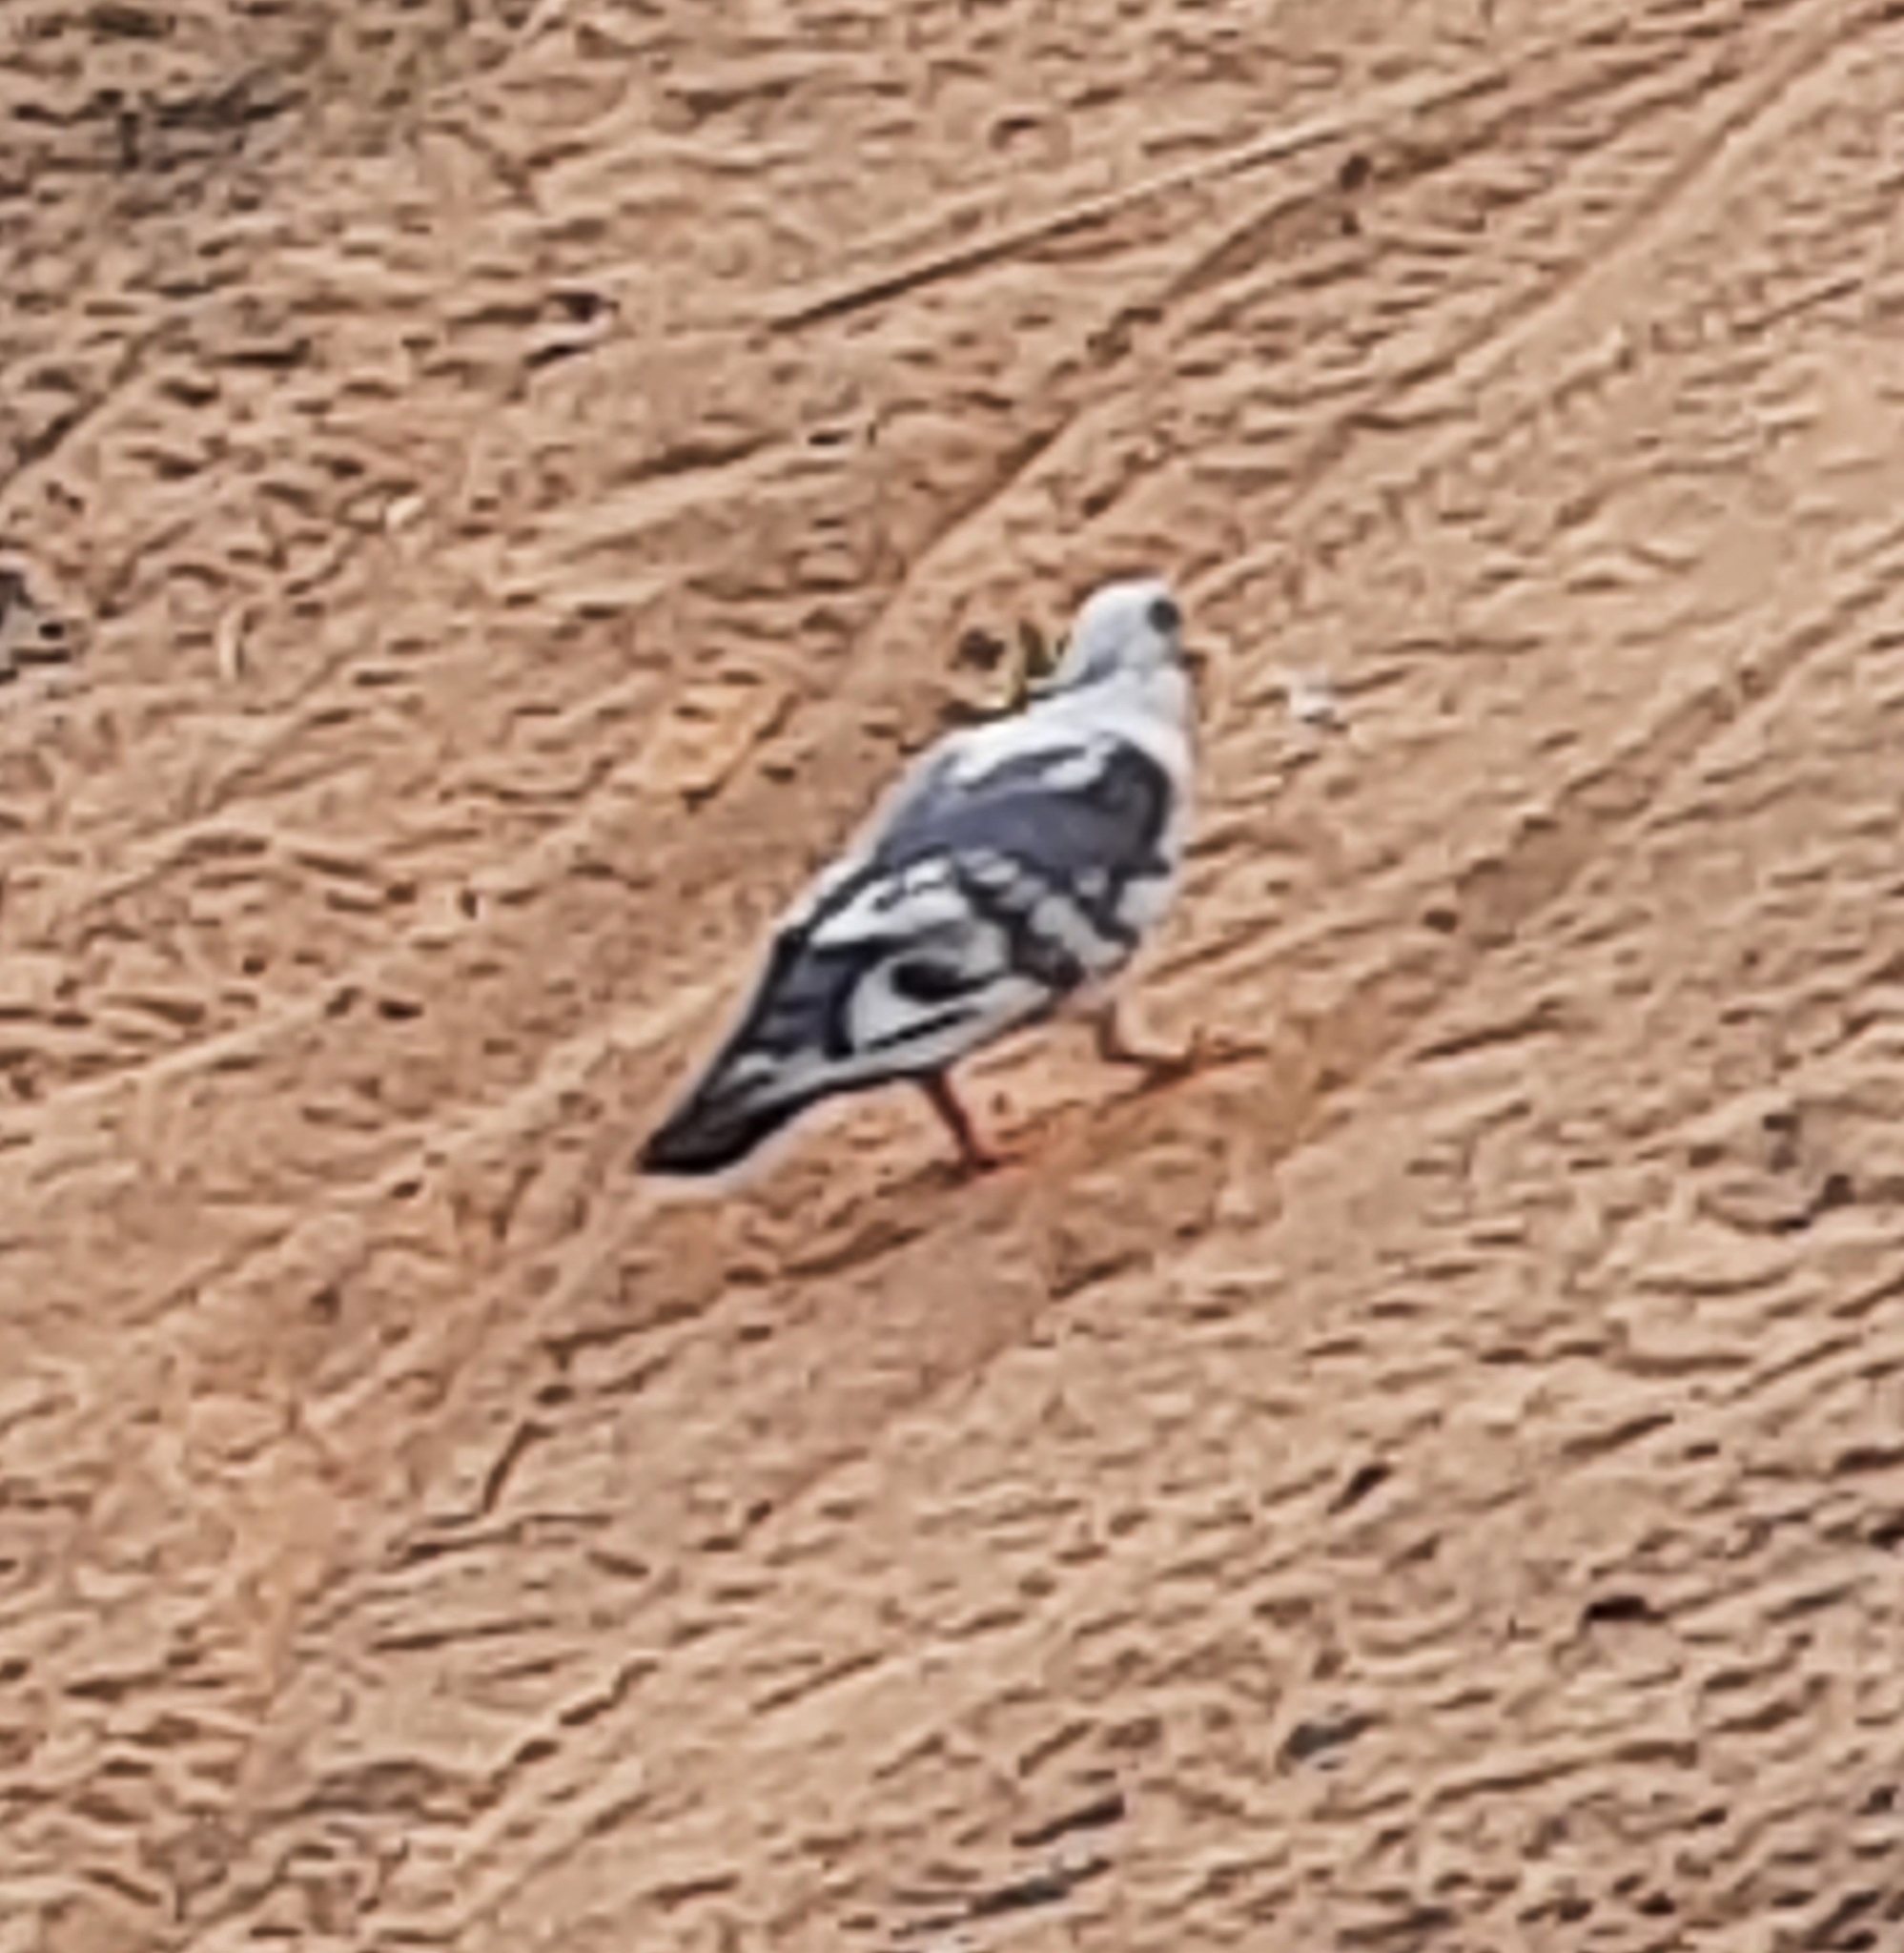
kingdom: Animalia
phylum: Chordata
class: Aves
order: Columbiformes
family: Columbidae
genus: Columba
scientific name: Columba livia
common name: Rock pigeon
